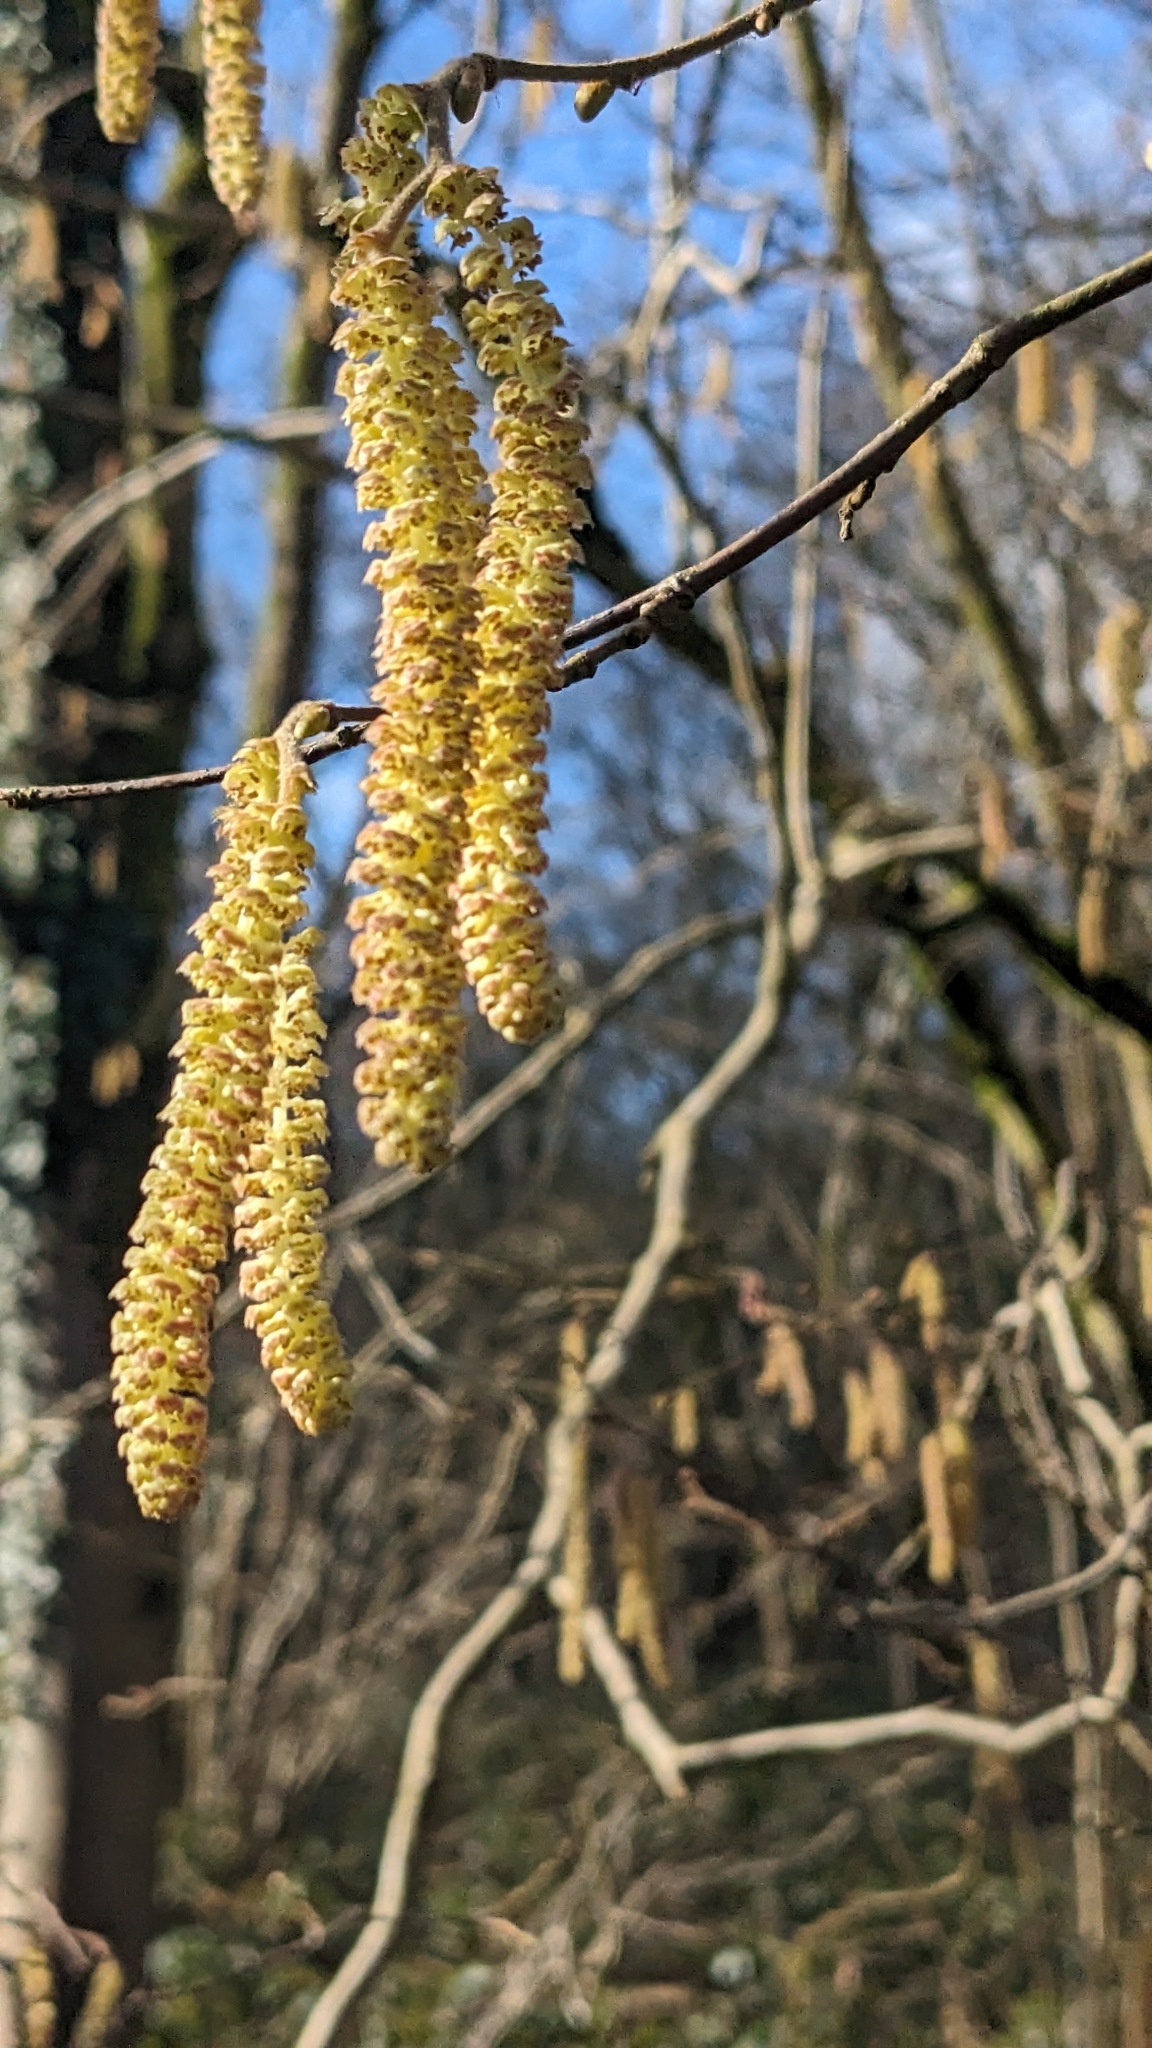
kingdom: Plantae
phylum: Tracheophyta
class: Magnoliopsida
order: Fagales
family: Betulaceae
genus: Corylus
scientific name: Corylus avellana
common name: European hazel
